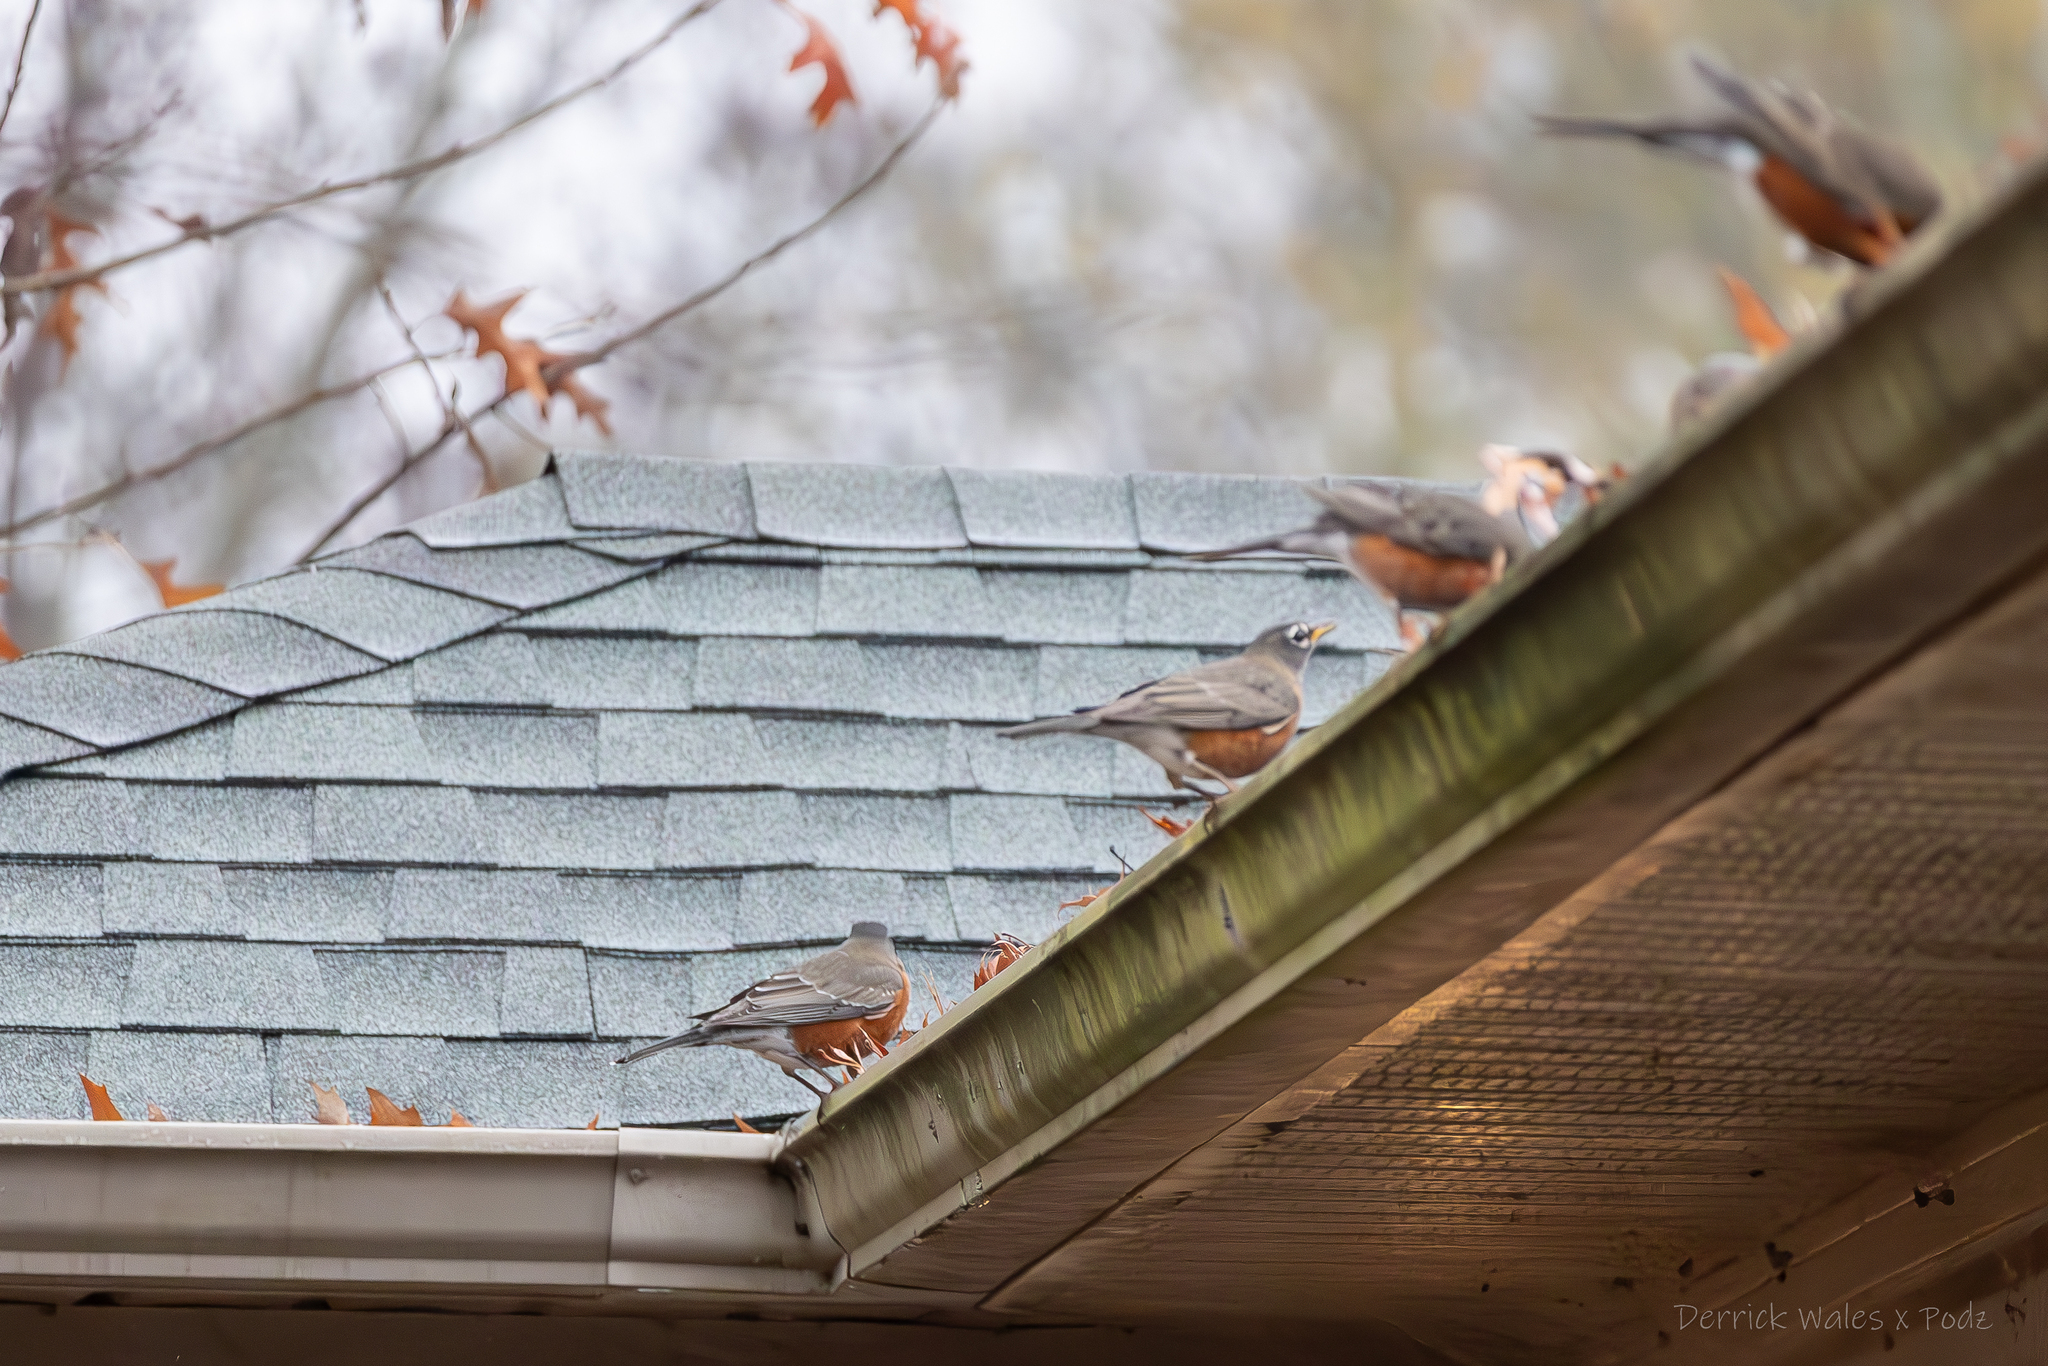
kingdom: Animalia
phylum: Chordata
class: Aves
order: Passeriformes
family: Turdidae
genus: Turdus
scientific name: Turdus migratorius
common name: American robin
